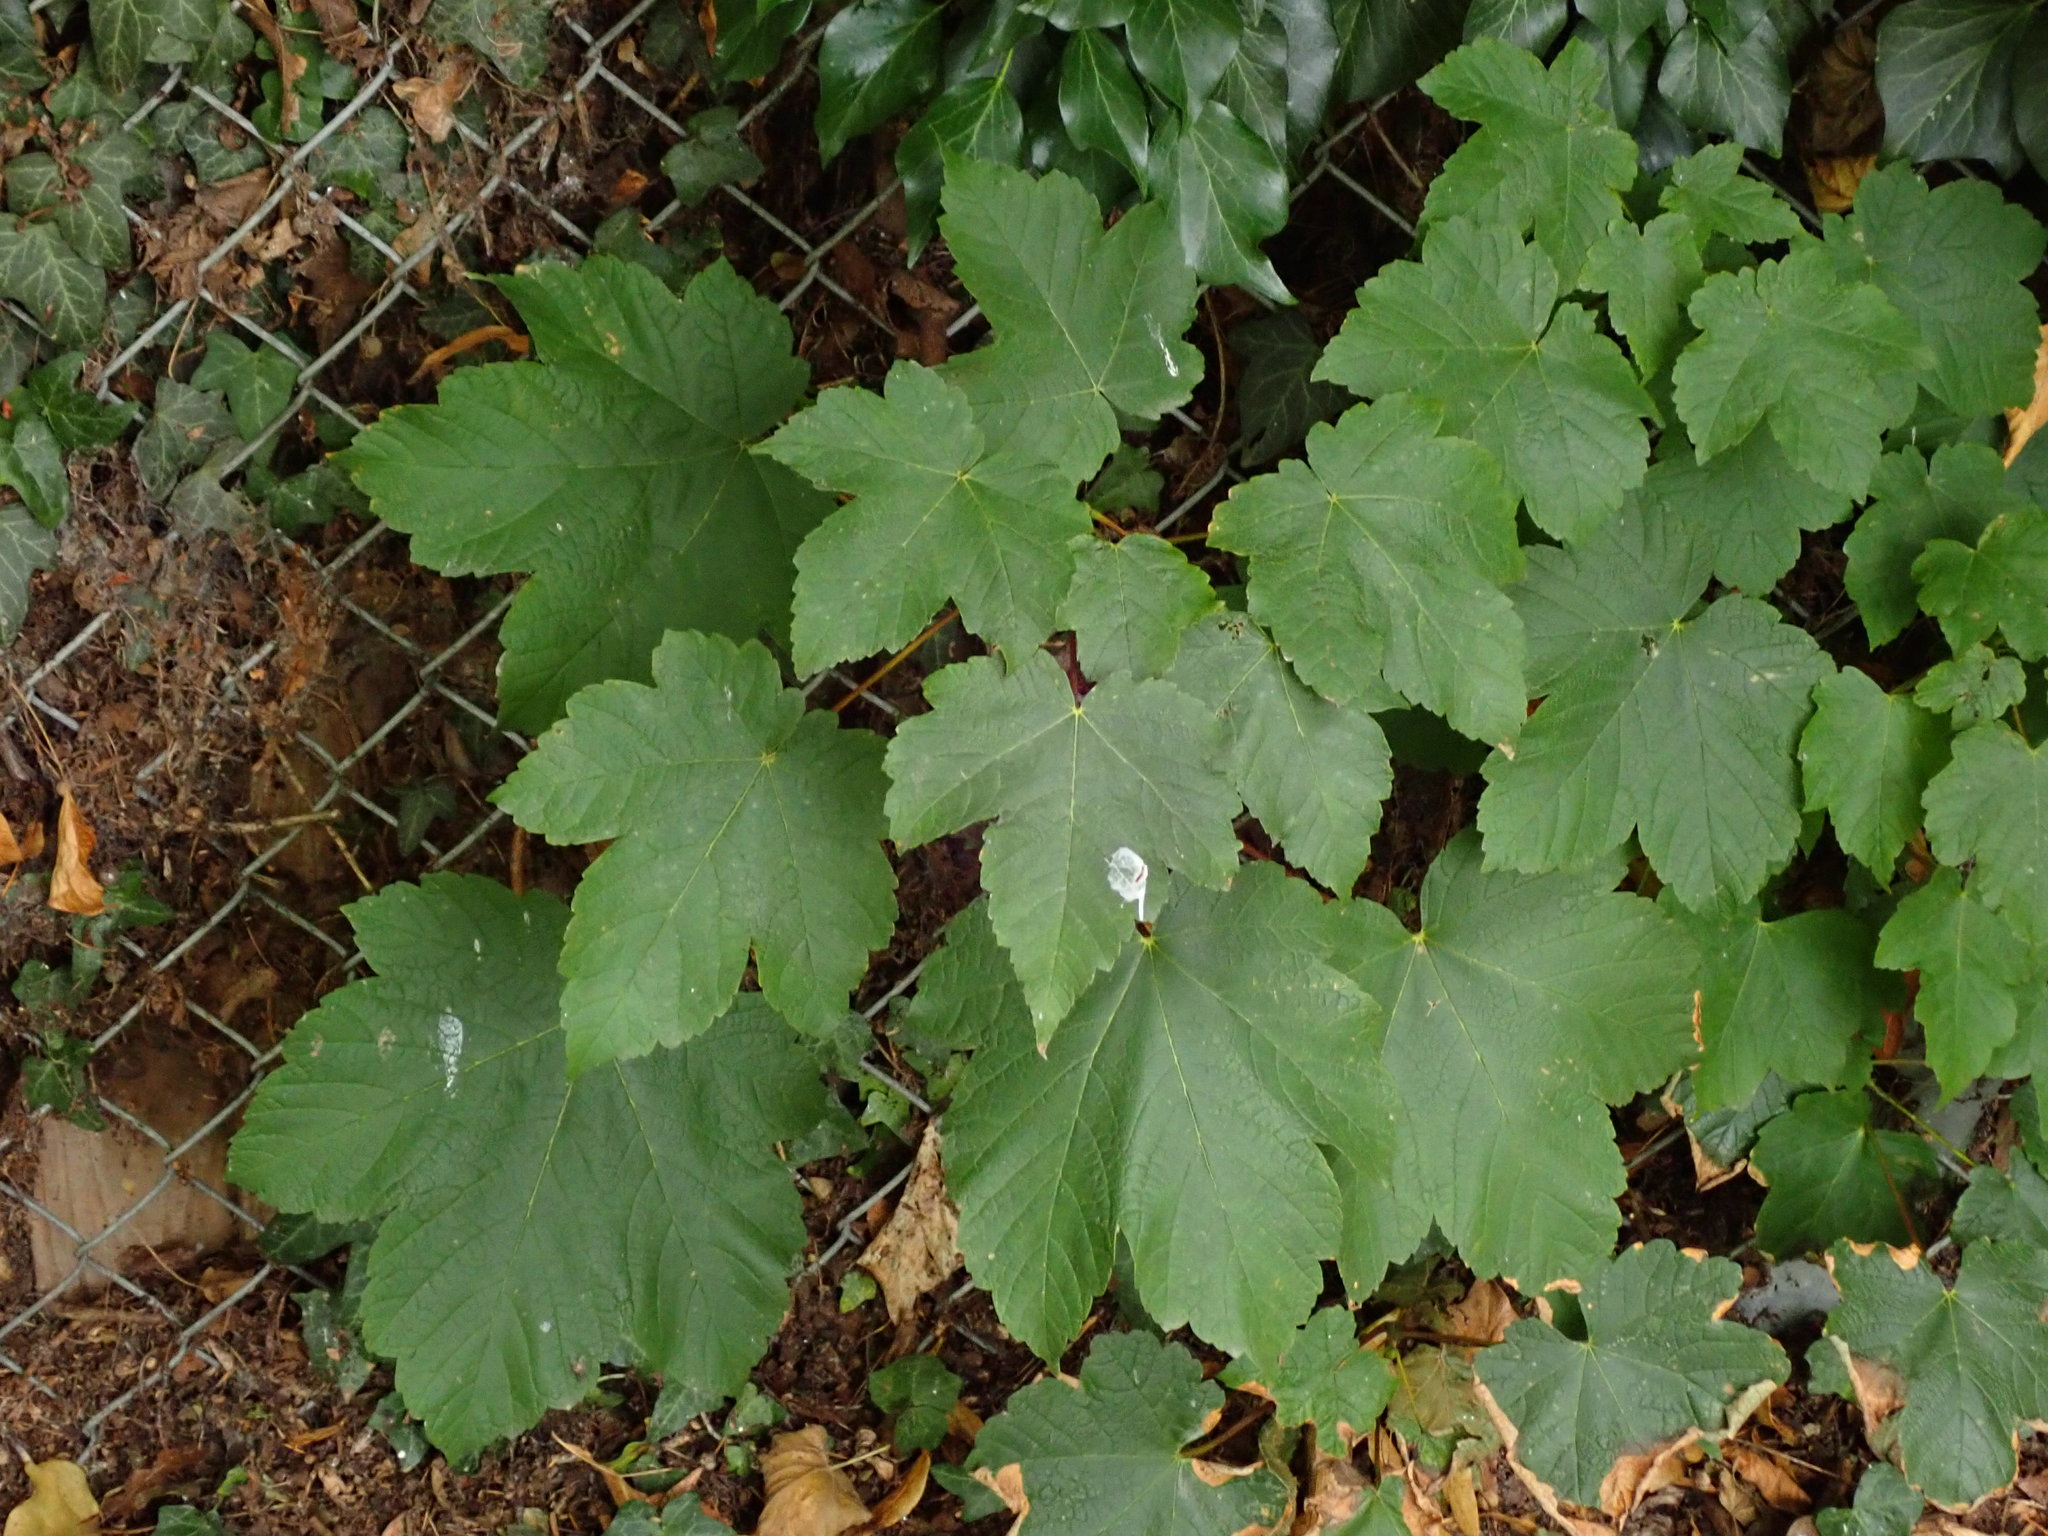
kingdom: Plantae
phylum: Tracheophyta
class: Magnoliopsida
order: Sapindales
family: Sapindaceae
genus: Acer
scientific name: Acer pseudoplatanus
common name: Sycamore
